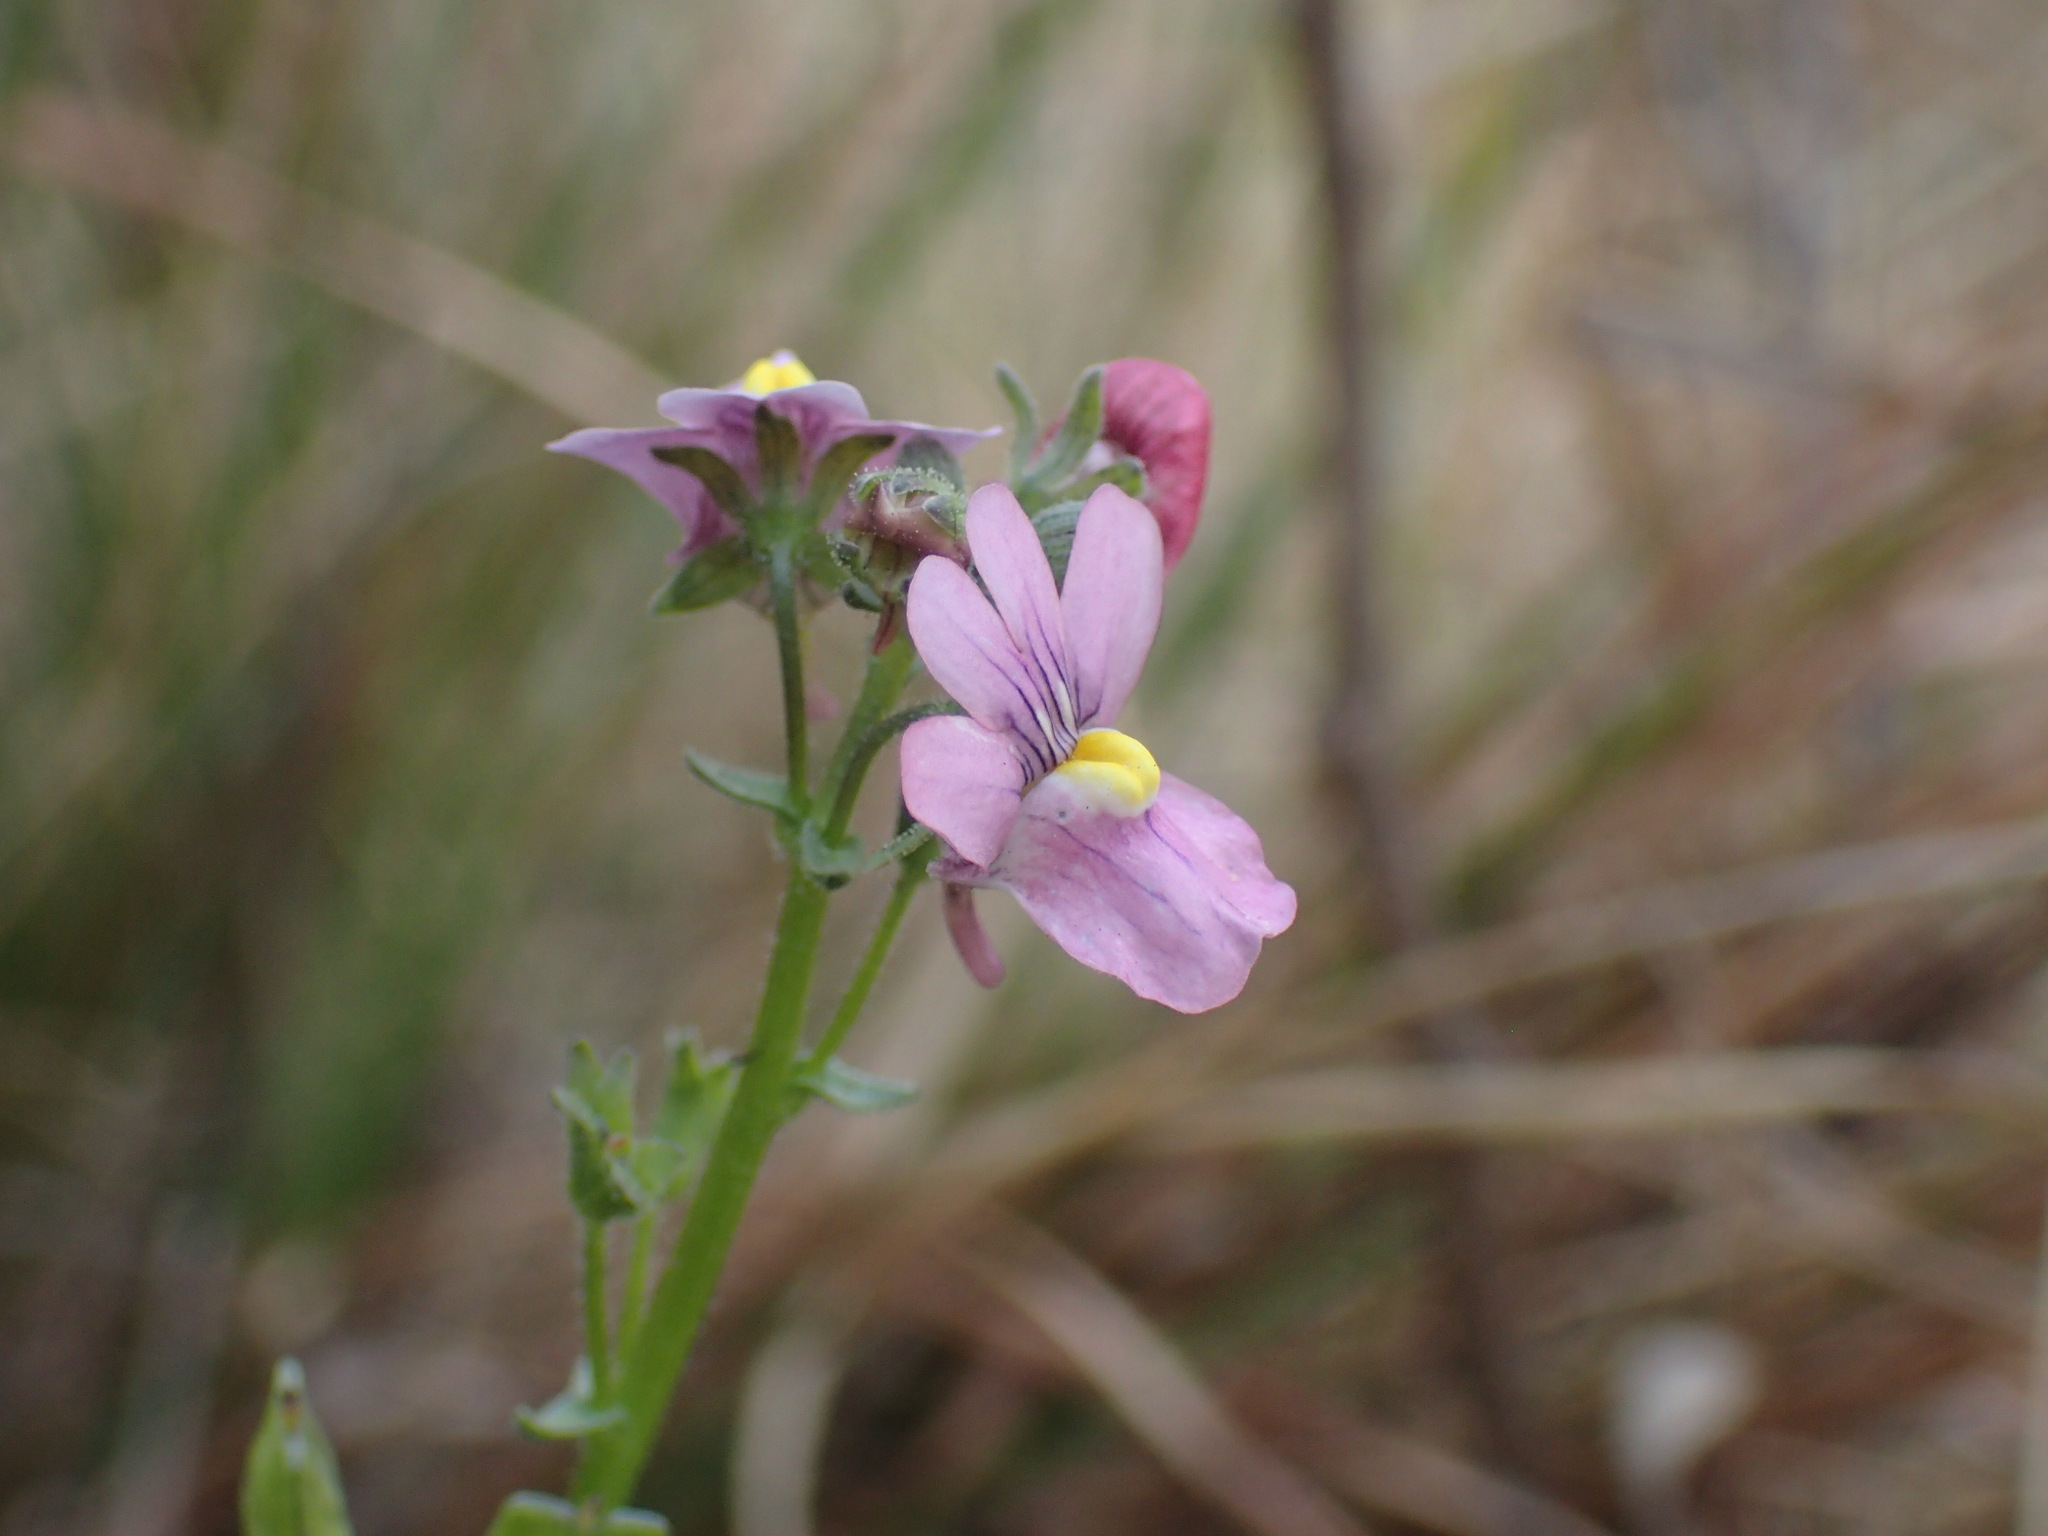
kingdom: Plantae
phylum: Tracheophyta
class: Magnoliopsida
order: Lamiales
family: Scrophulariaceae
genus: Nemesia
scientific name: Nemesia fruticans
